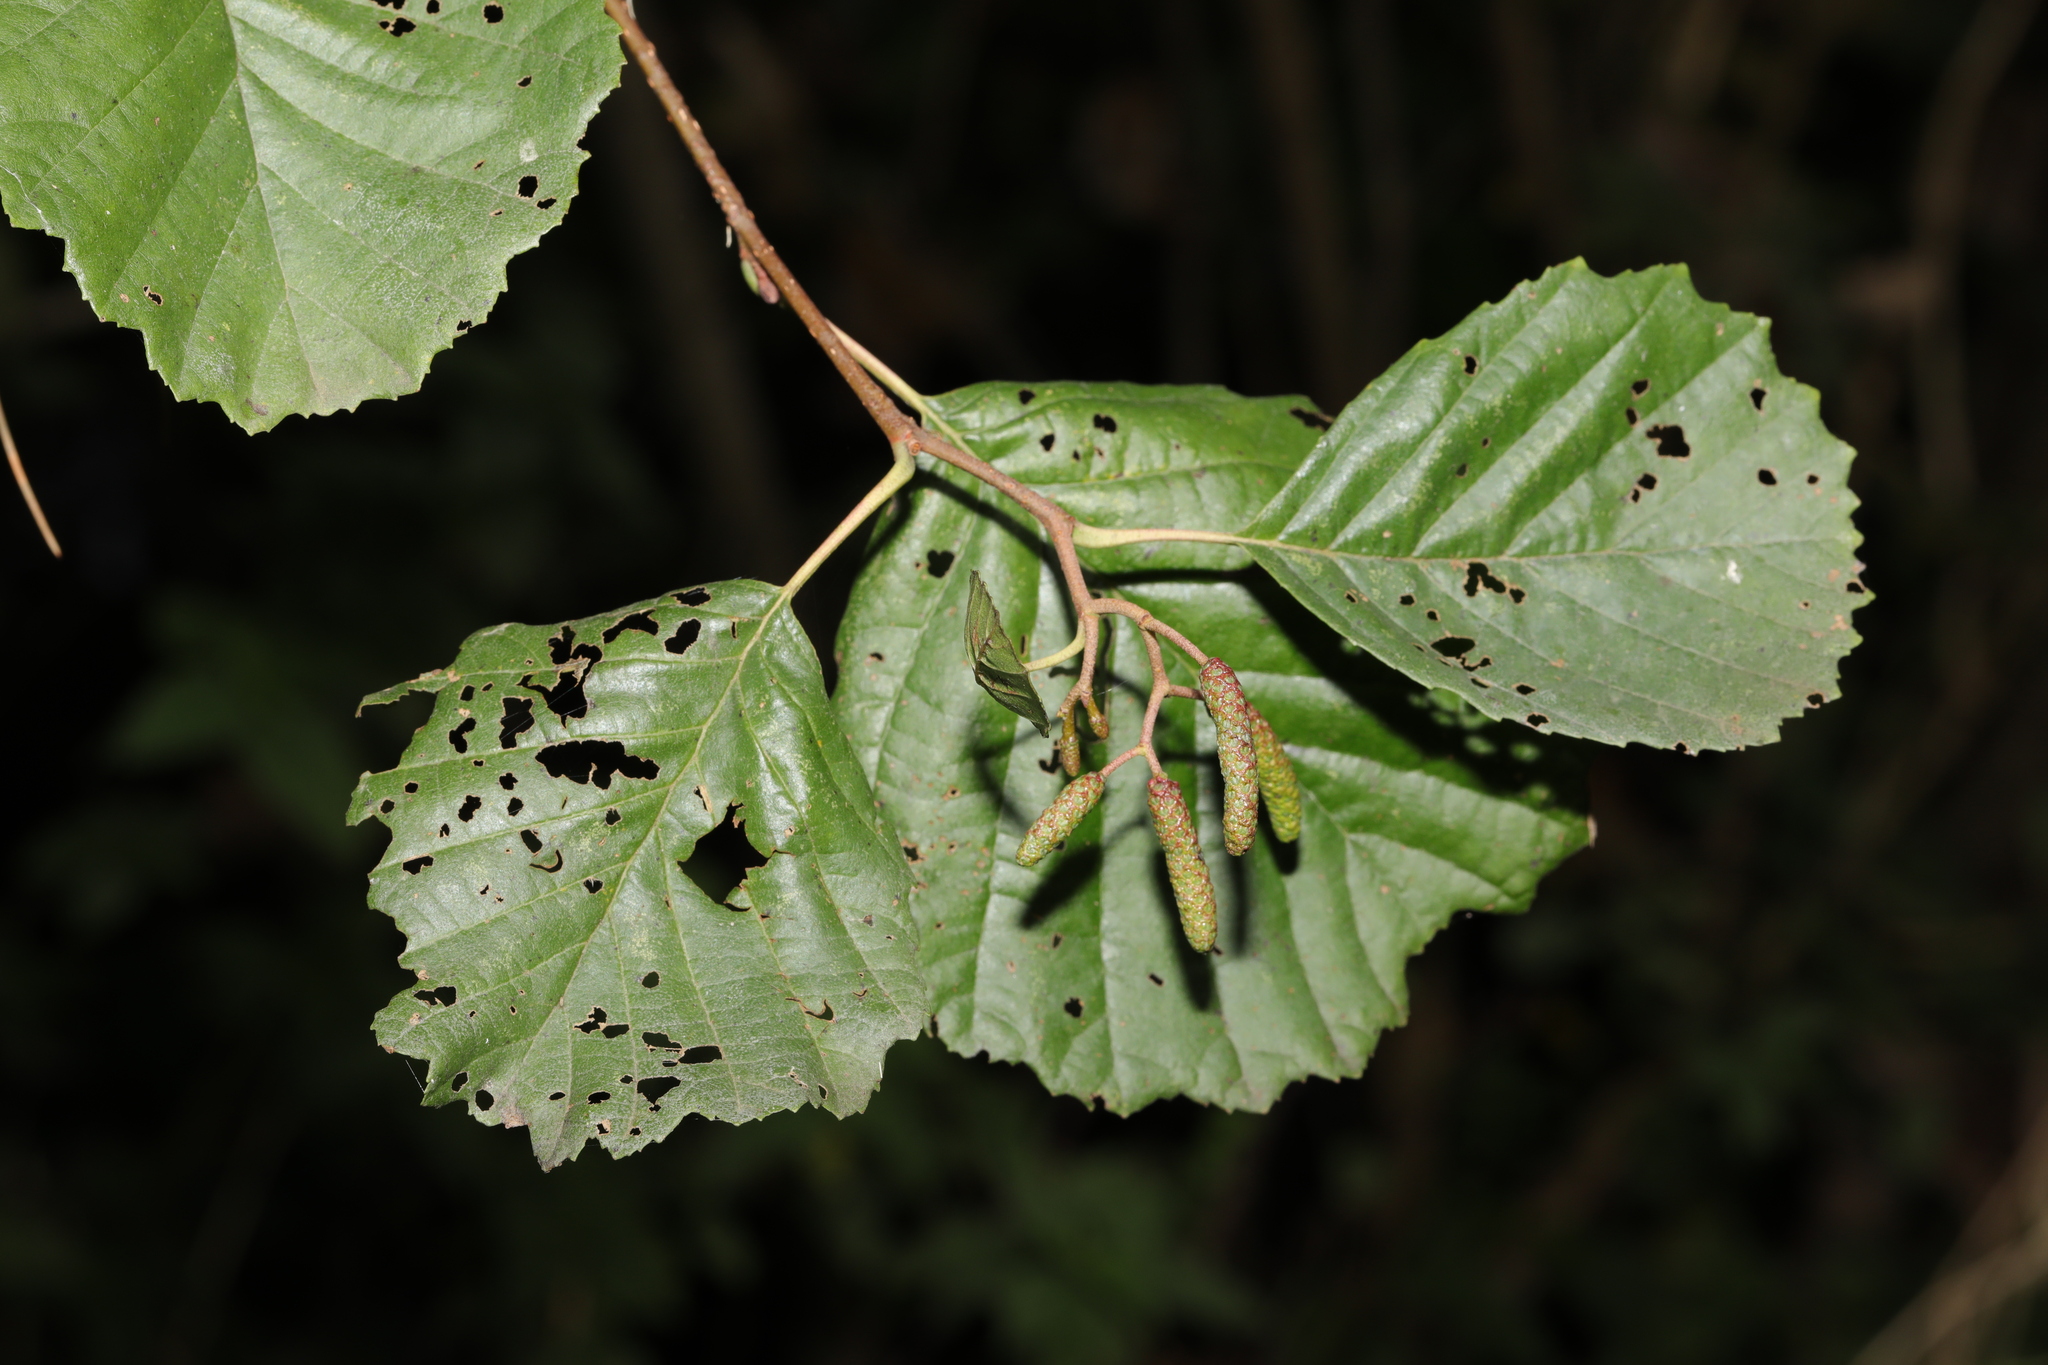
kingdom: Plantae
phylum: Tracheophyta
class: Magnoliopsida
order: Fagales
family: Betulaceae
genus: Alnus
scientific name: Alnus glutinosa
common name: Black alder
